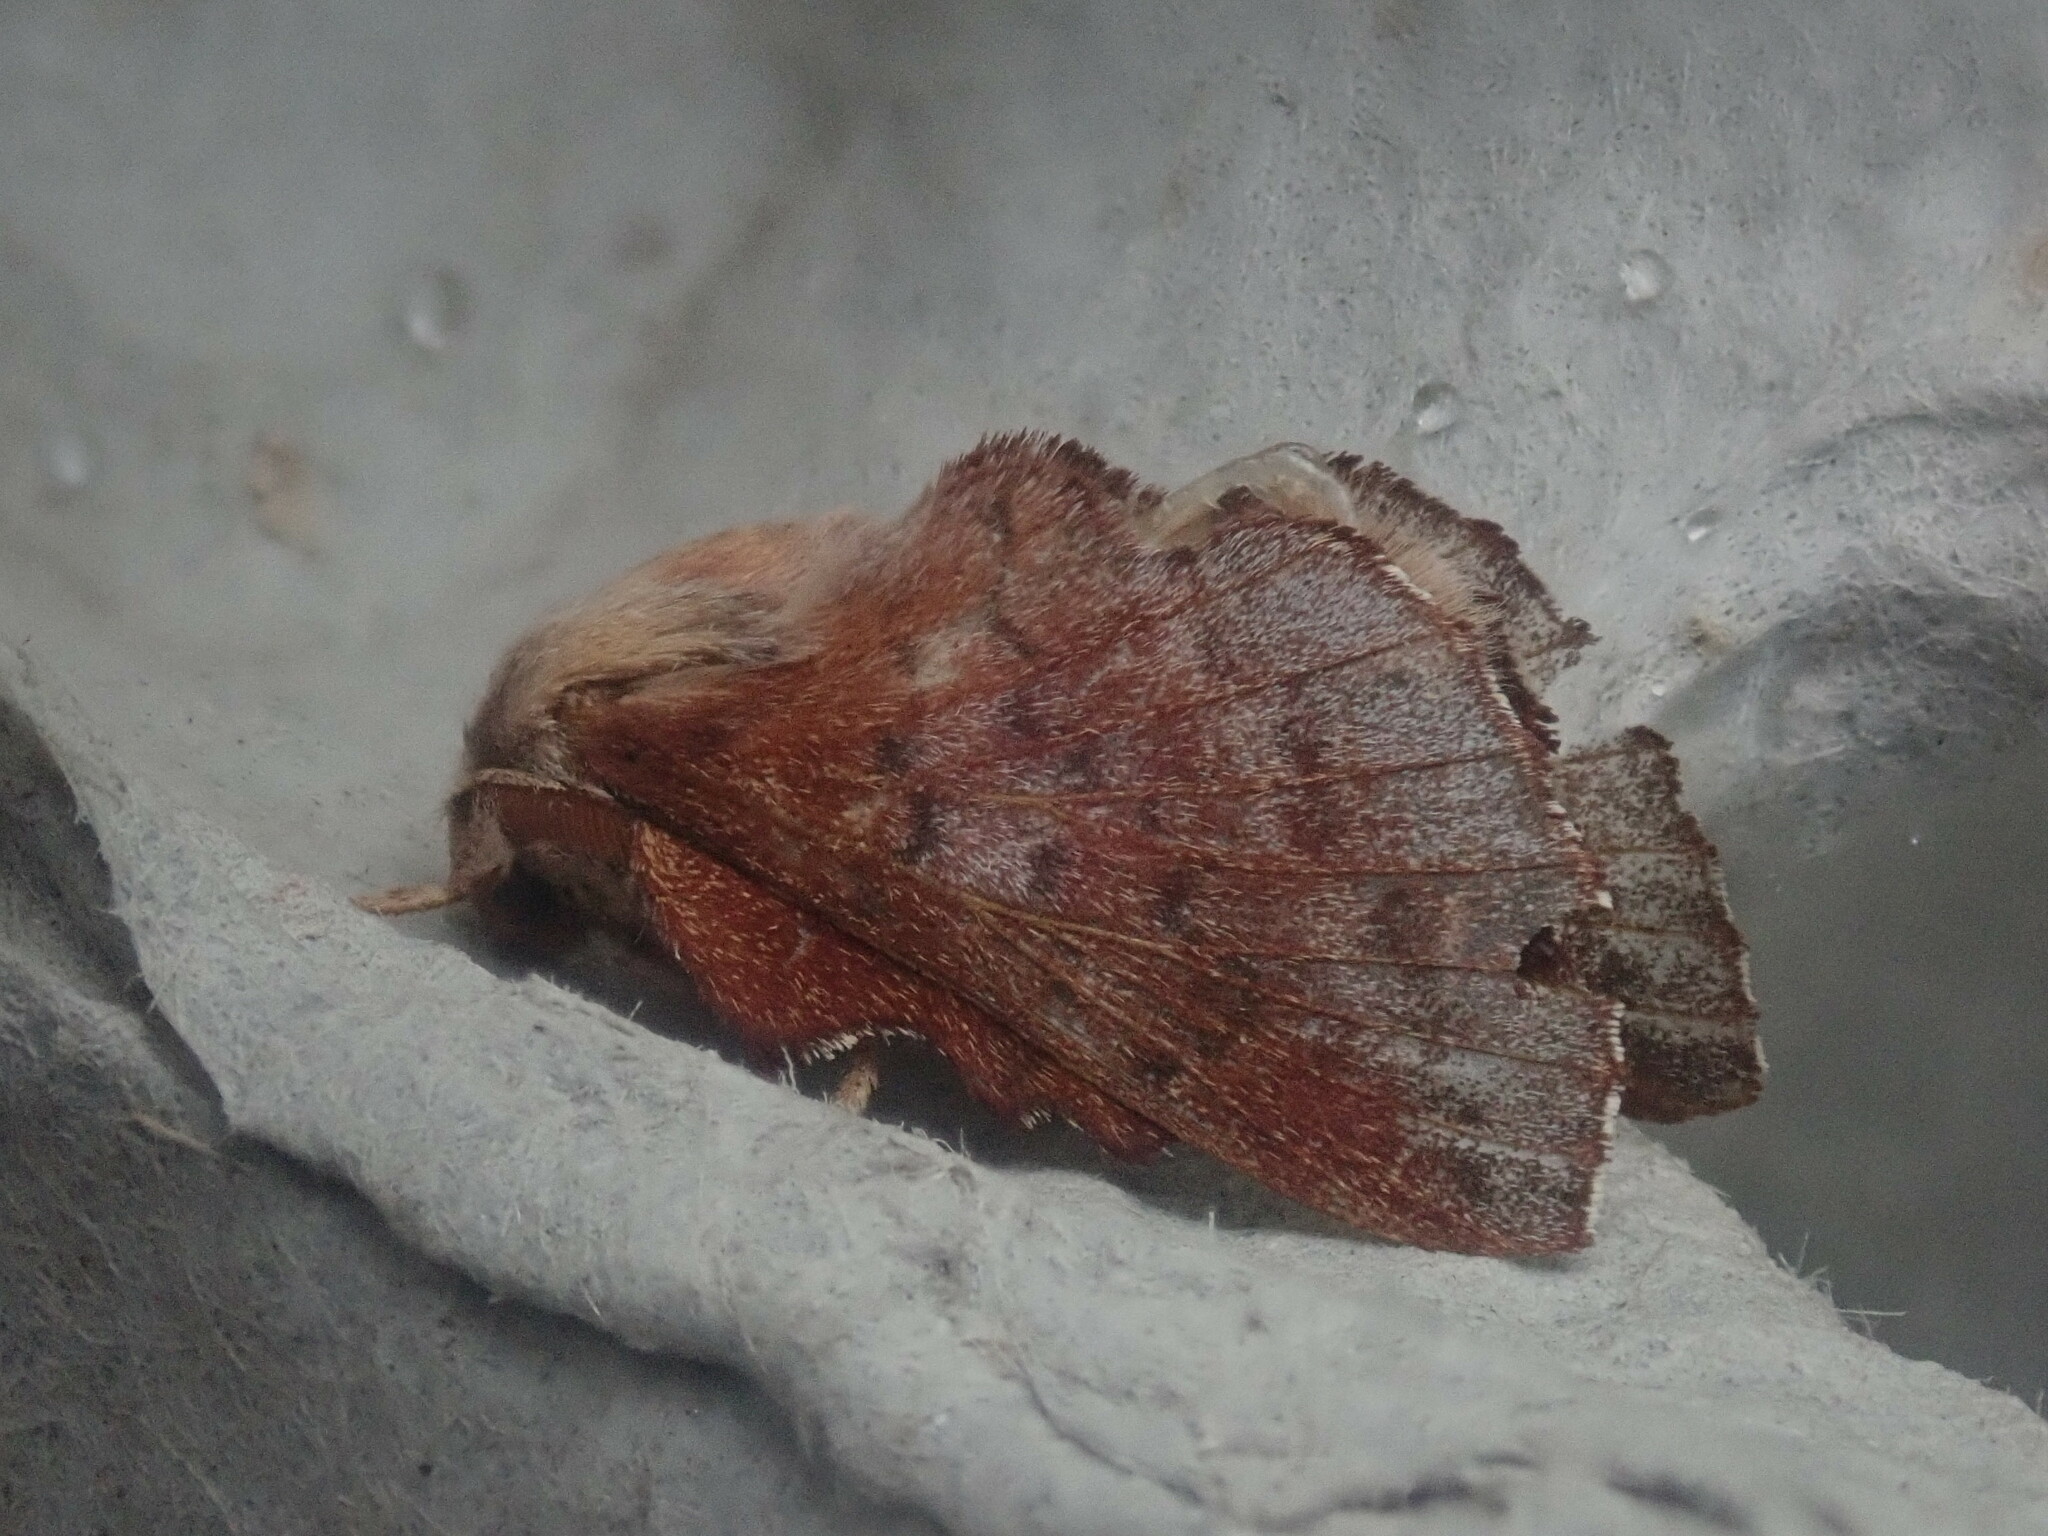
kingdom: Animalia
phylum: Arthropoda
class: Insecta
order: Lepidoptera
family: Lasiocampidae
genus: Phyllodesma
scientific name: Phyllodesma americana
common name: American lappet moth
